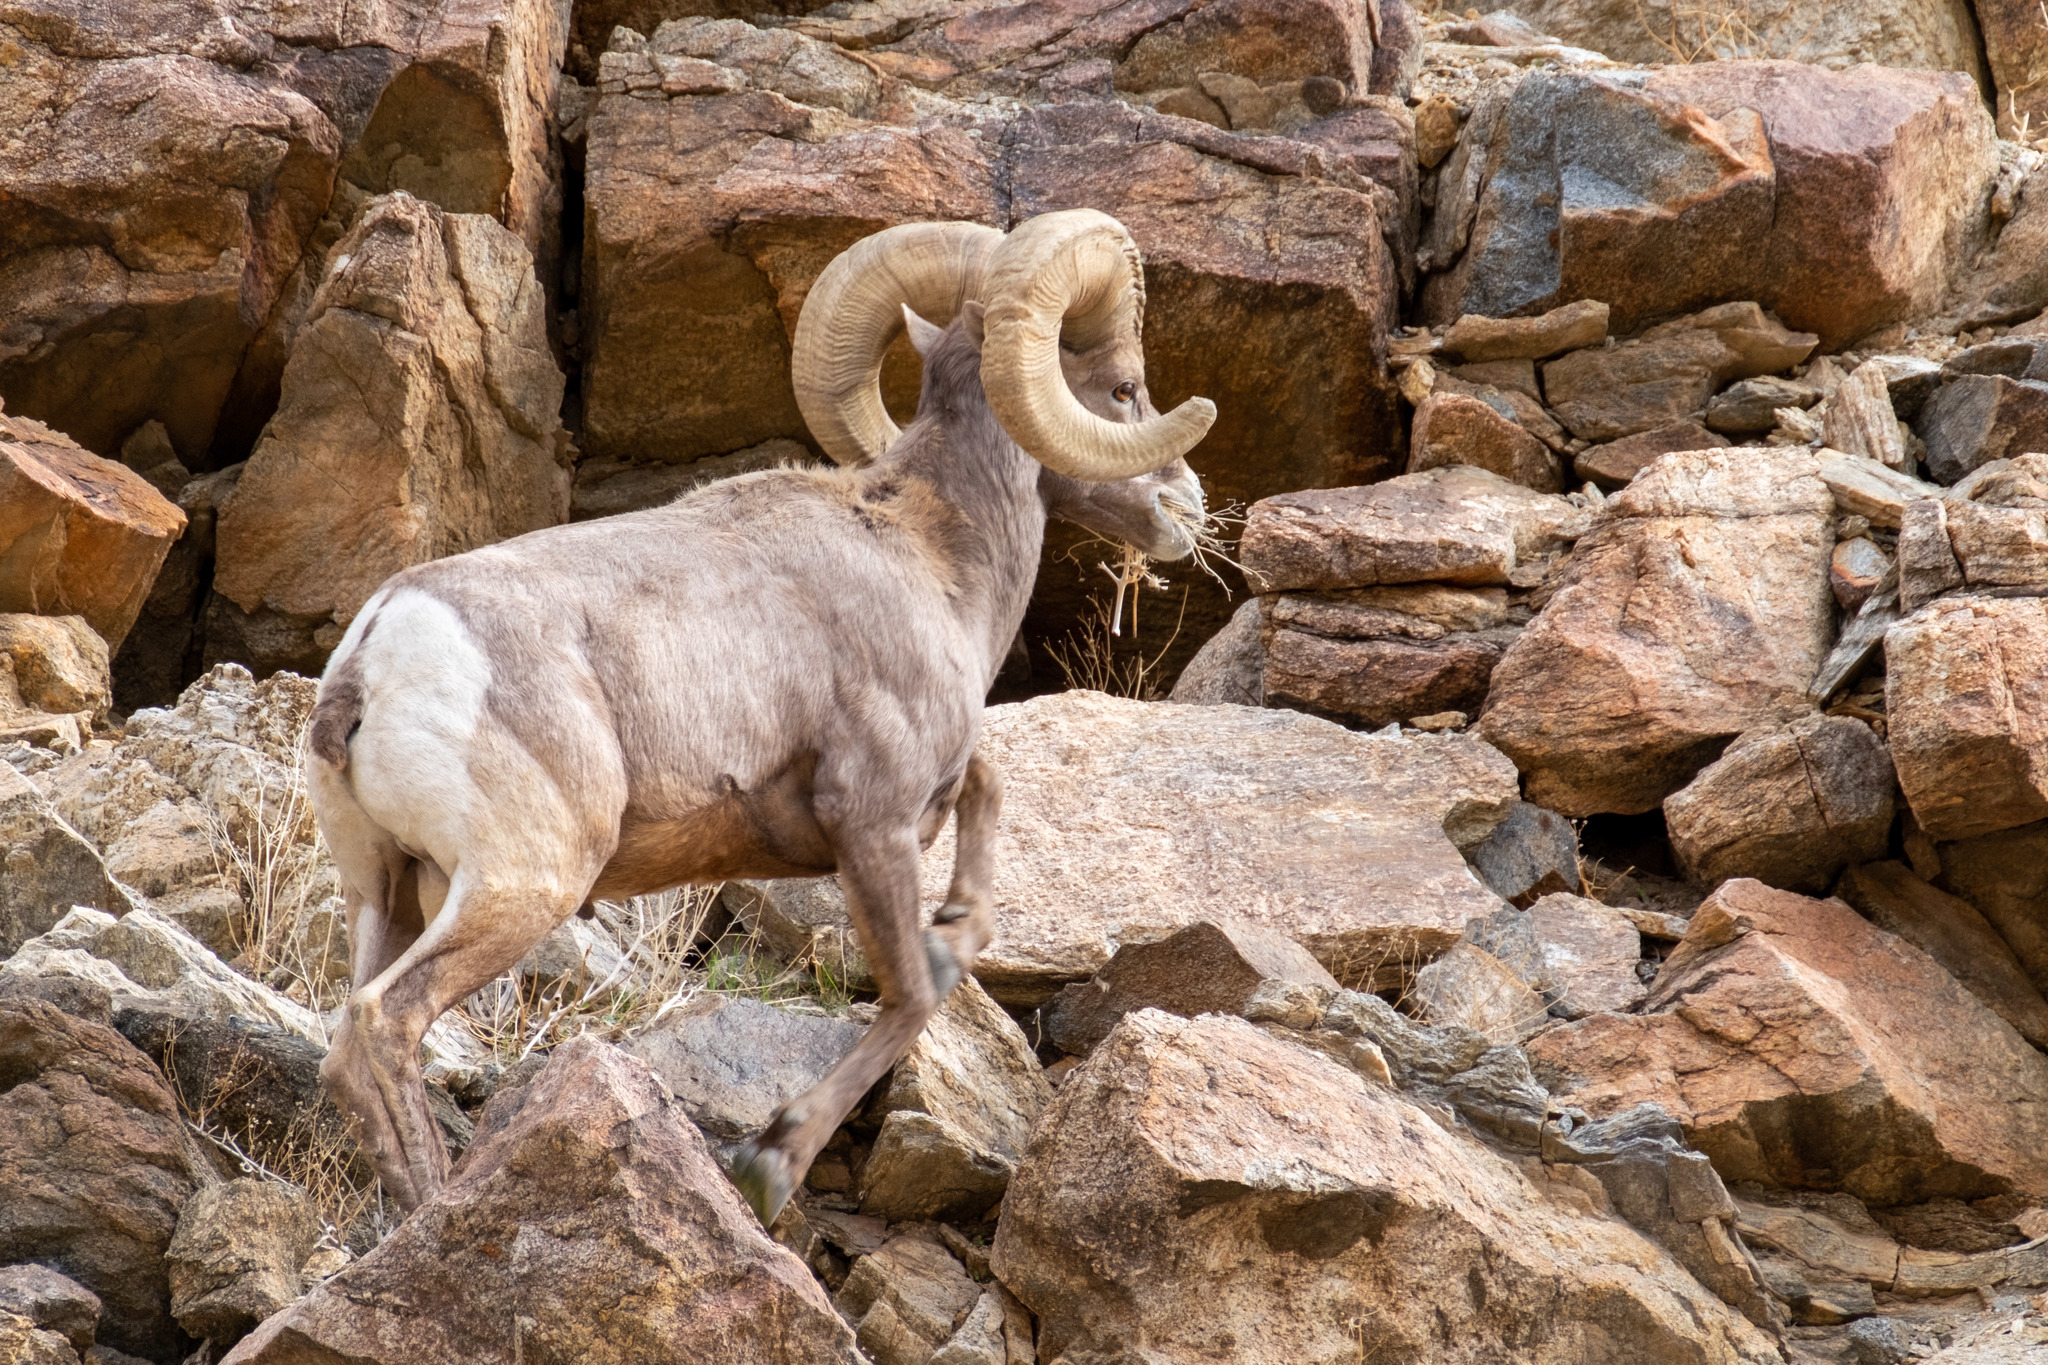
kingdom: Animalia
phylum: Chordata
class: Mammalia
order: Artiodactyla
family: Bovidae
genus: Ovis
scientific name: Ovis canadensis
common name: Bighorn sheep
